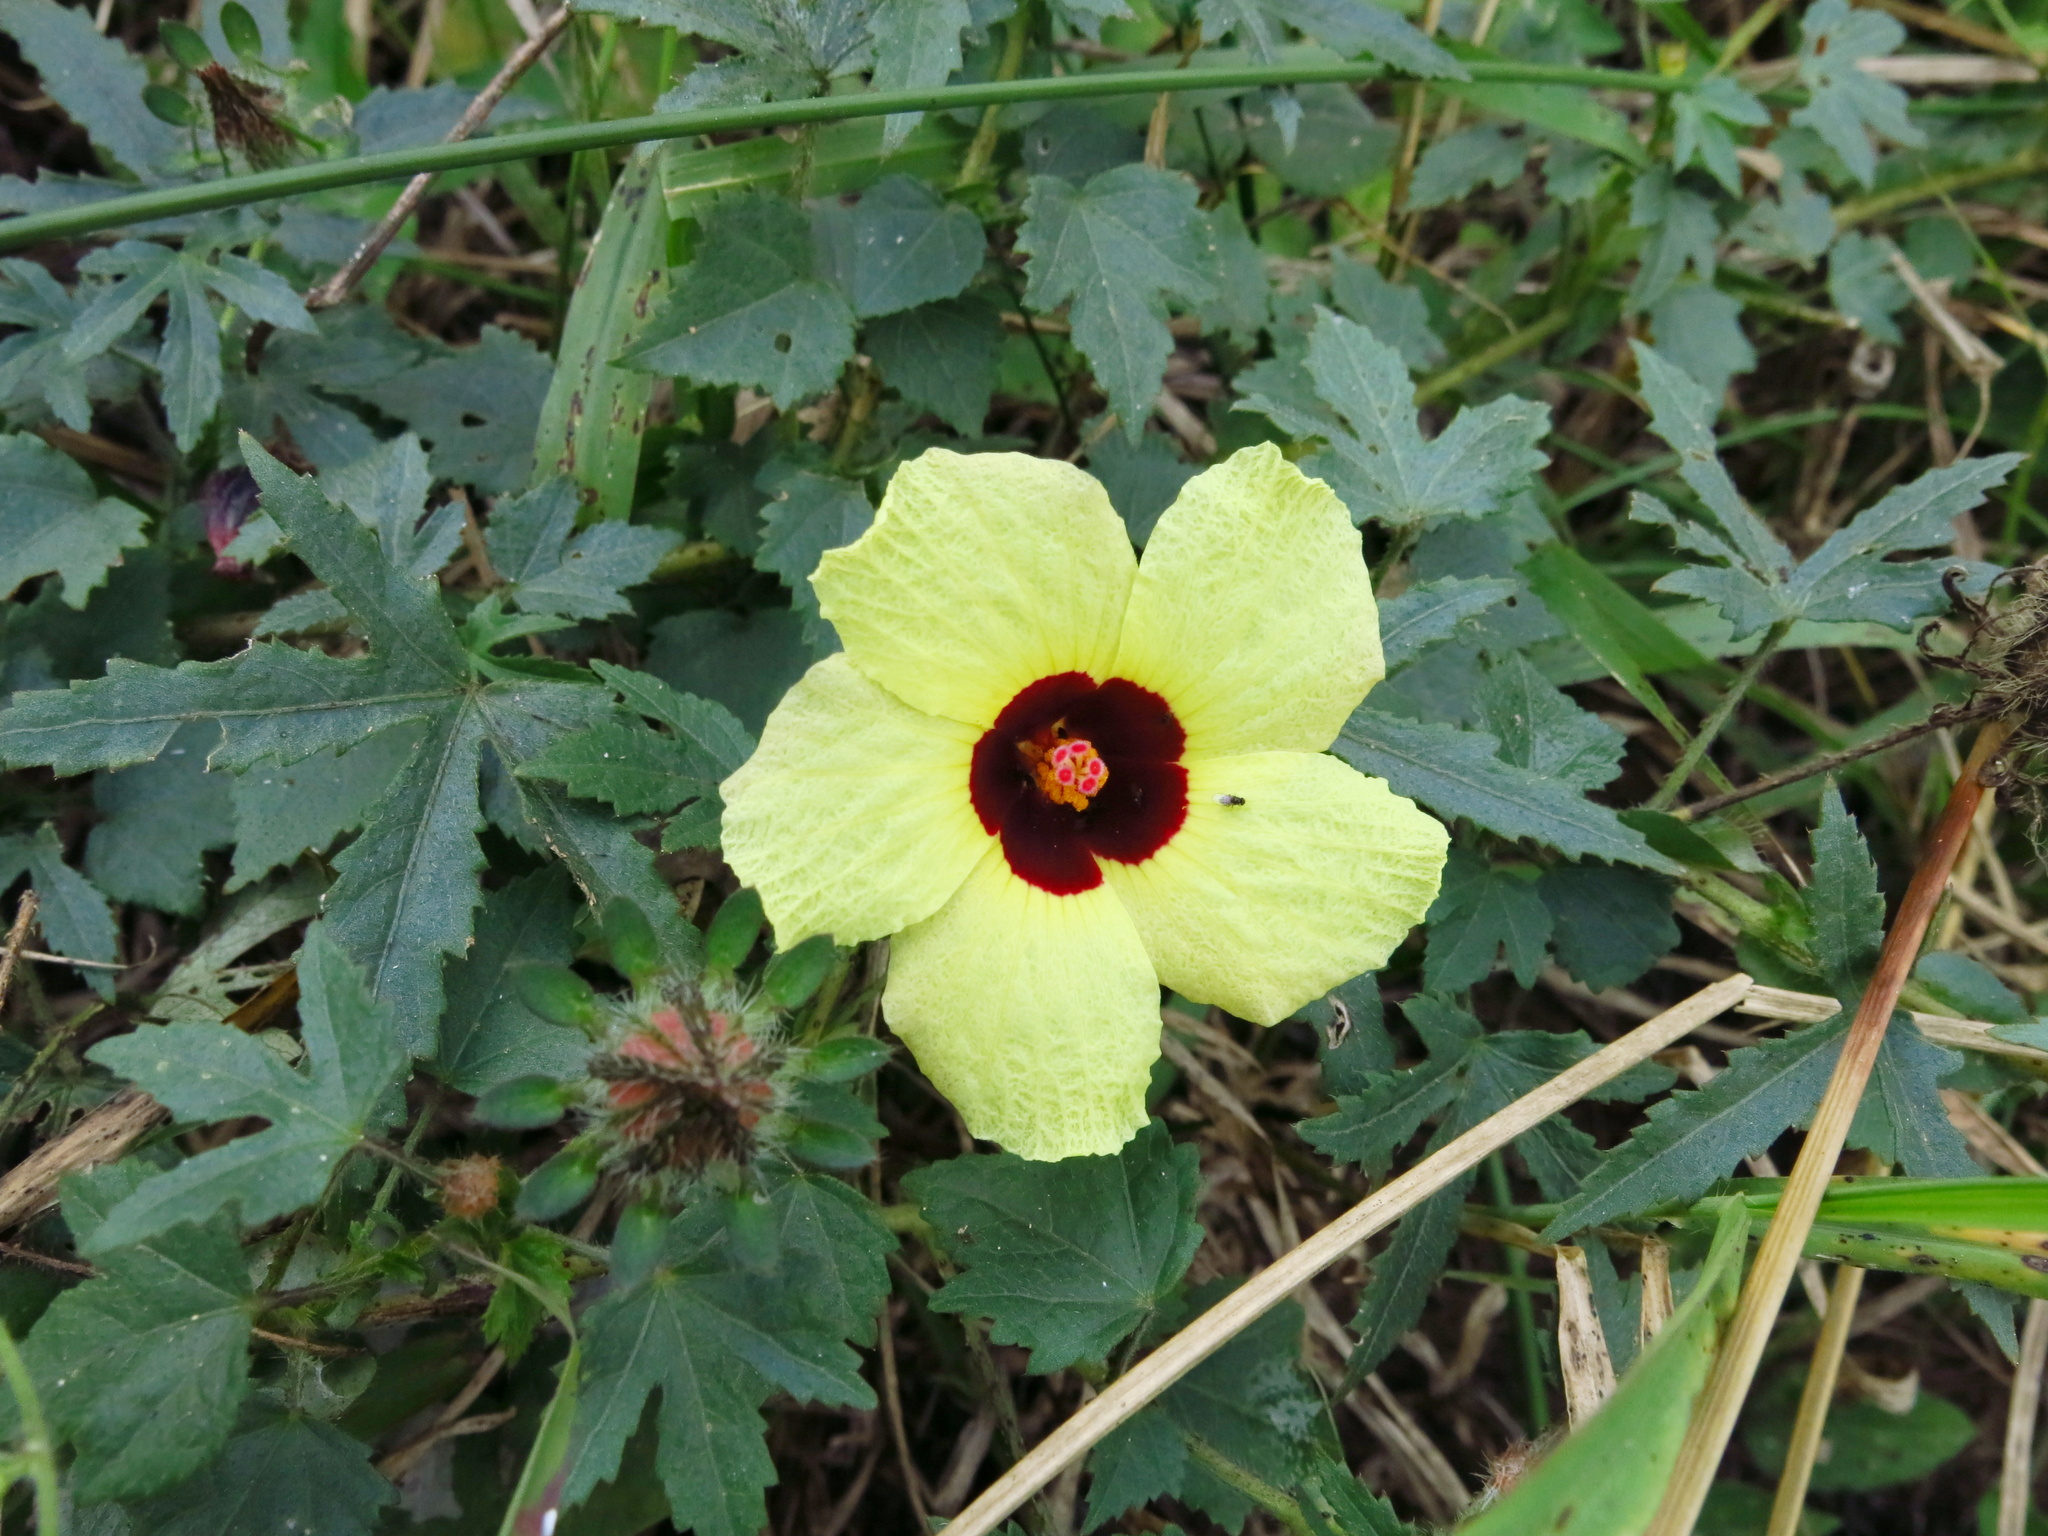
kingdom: Plantae
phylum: Tracheophyta
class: Magnoliopsida
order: Malvales
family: Malvaceae
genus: Hibiscus
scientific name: Hibiscus surattensis
